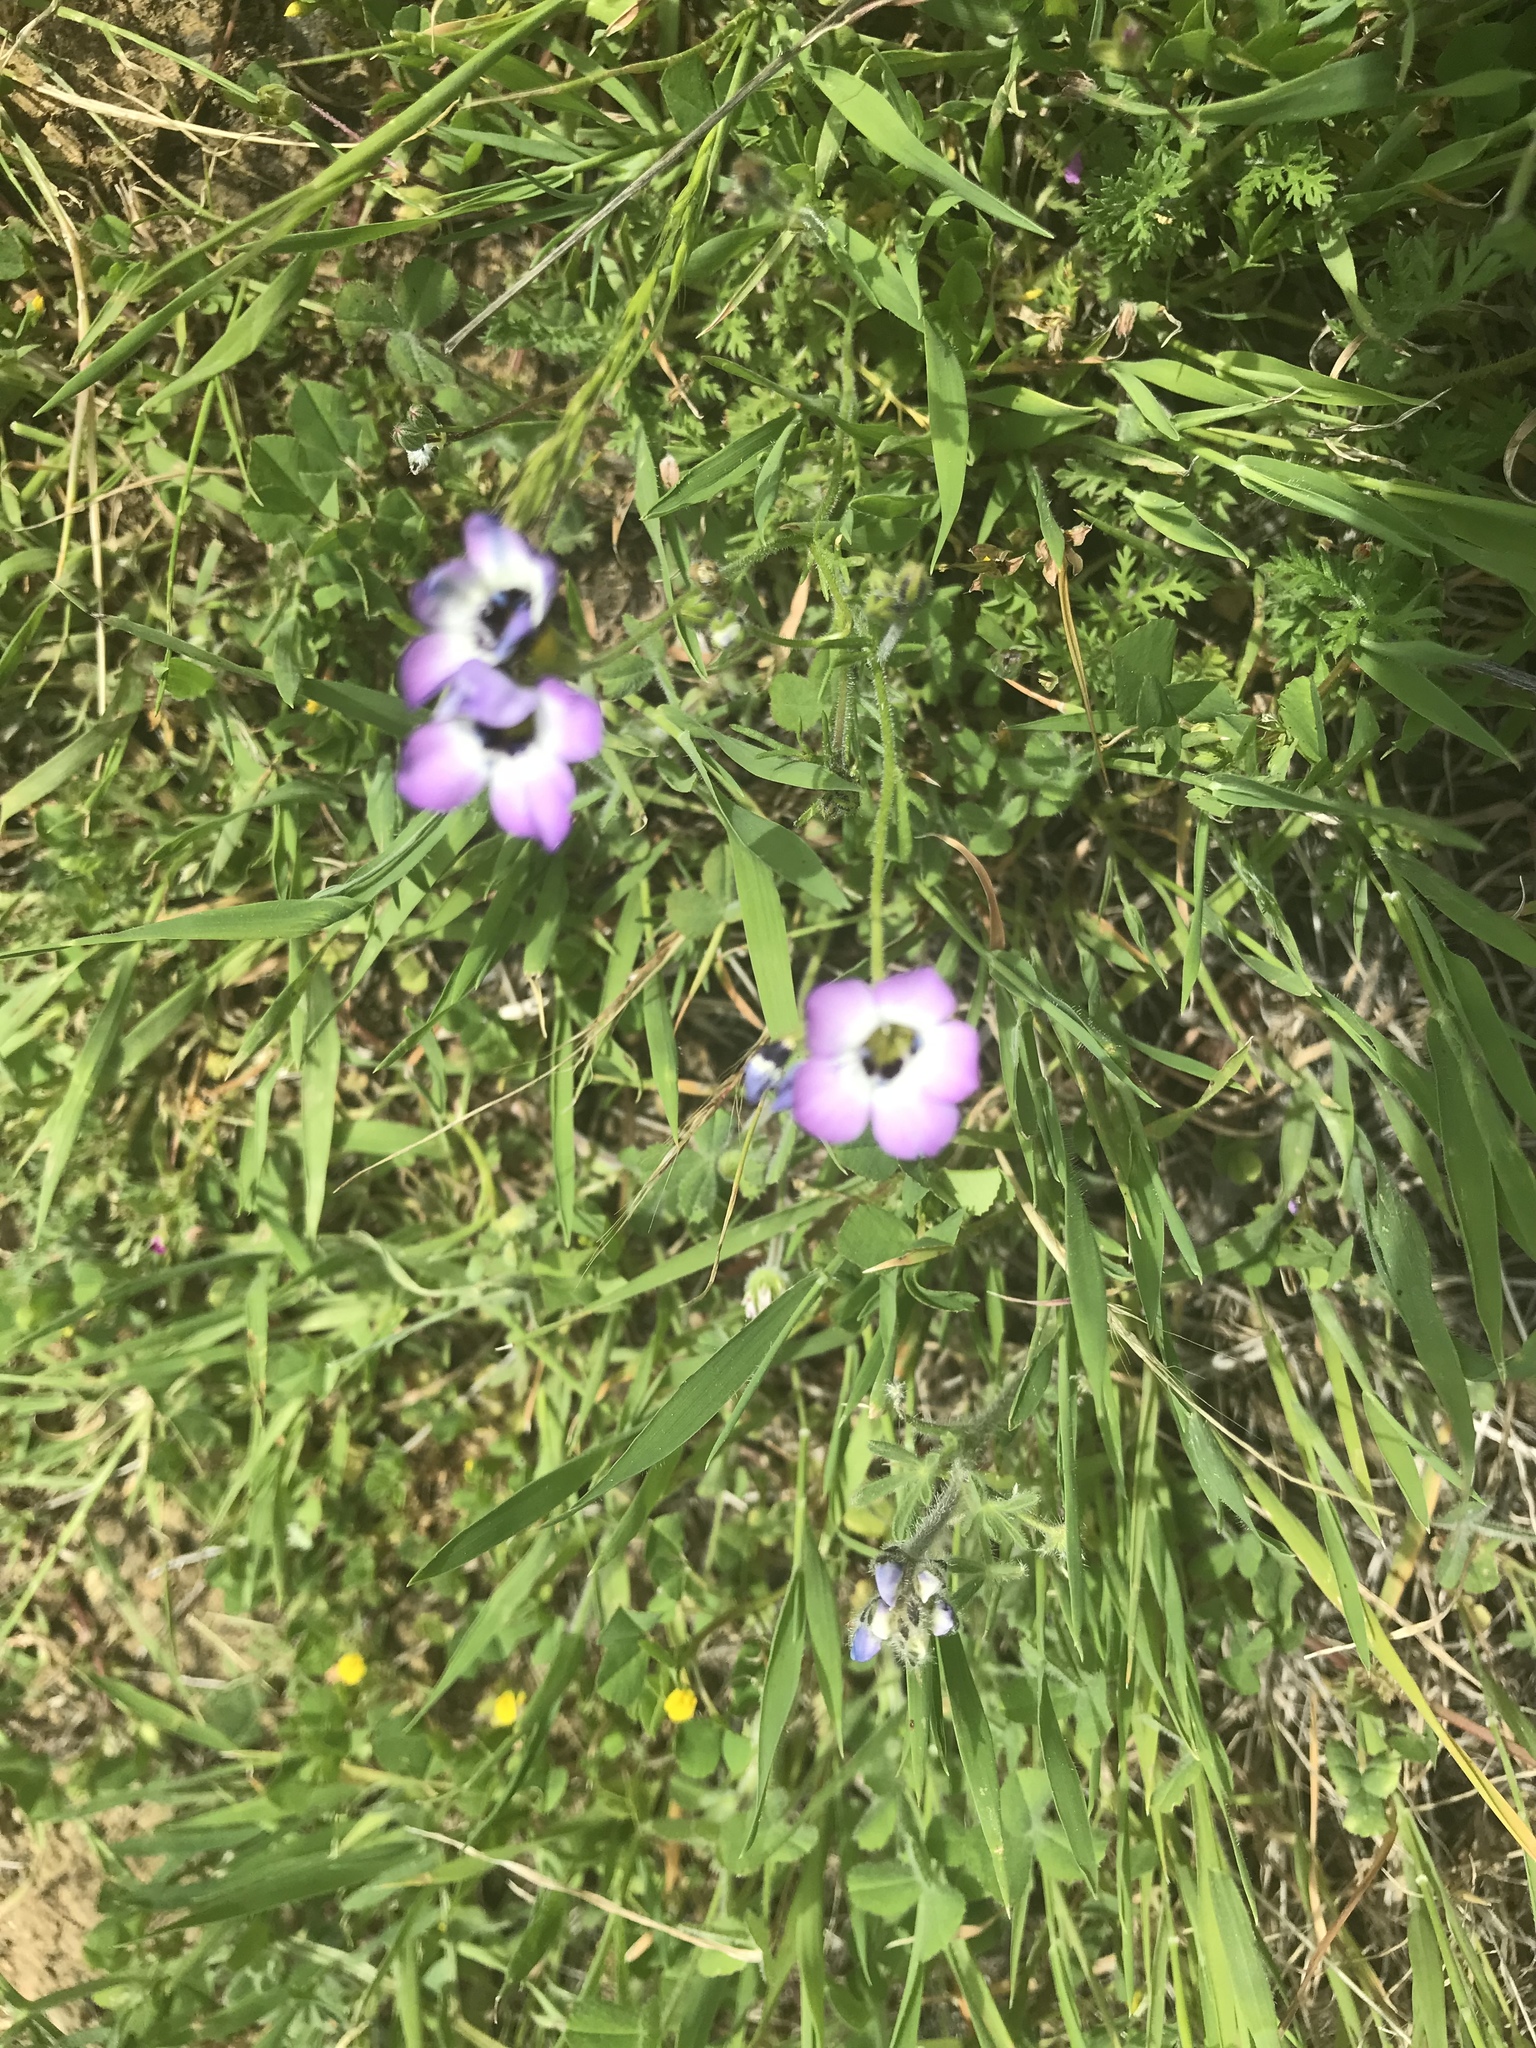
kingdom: Plantae
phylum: Tracheophyta
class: Magnoliopsida
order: Ericales
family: Polemoniaceae
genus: Gilia
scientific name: Gilia tricolor
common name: Bird's-eyes
